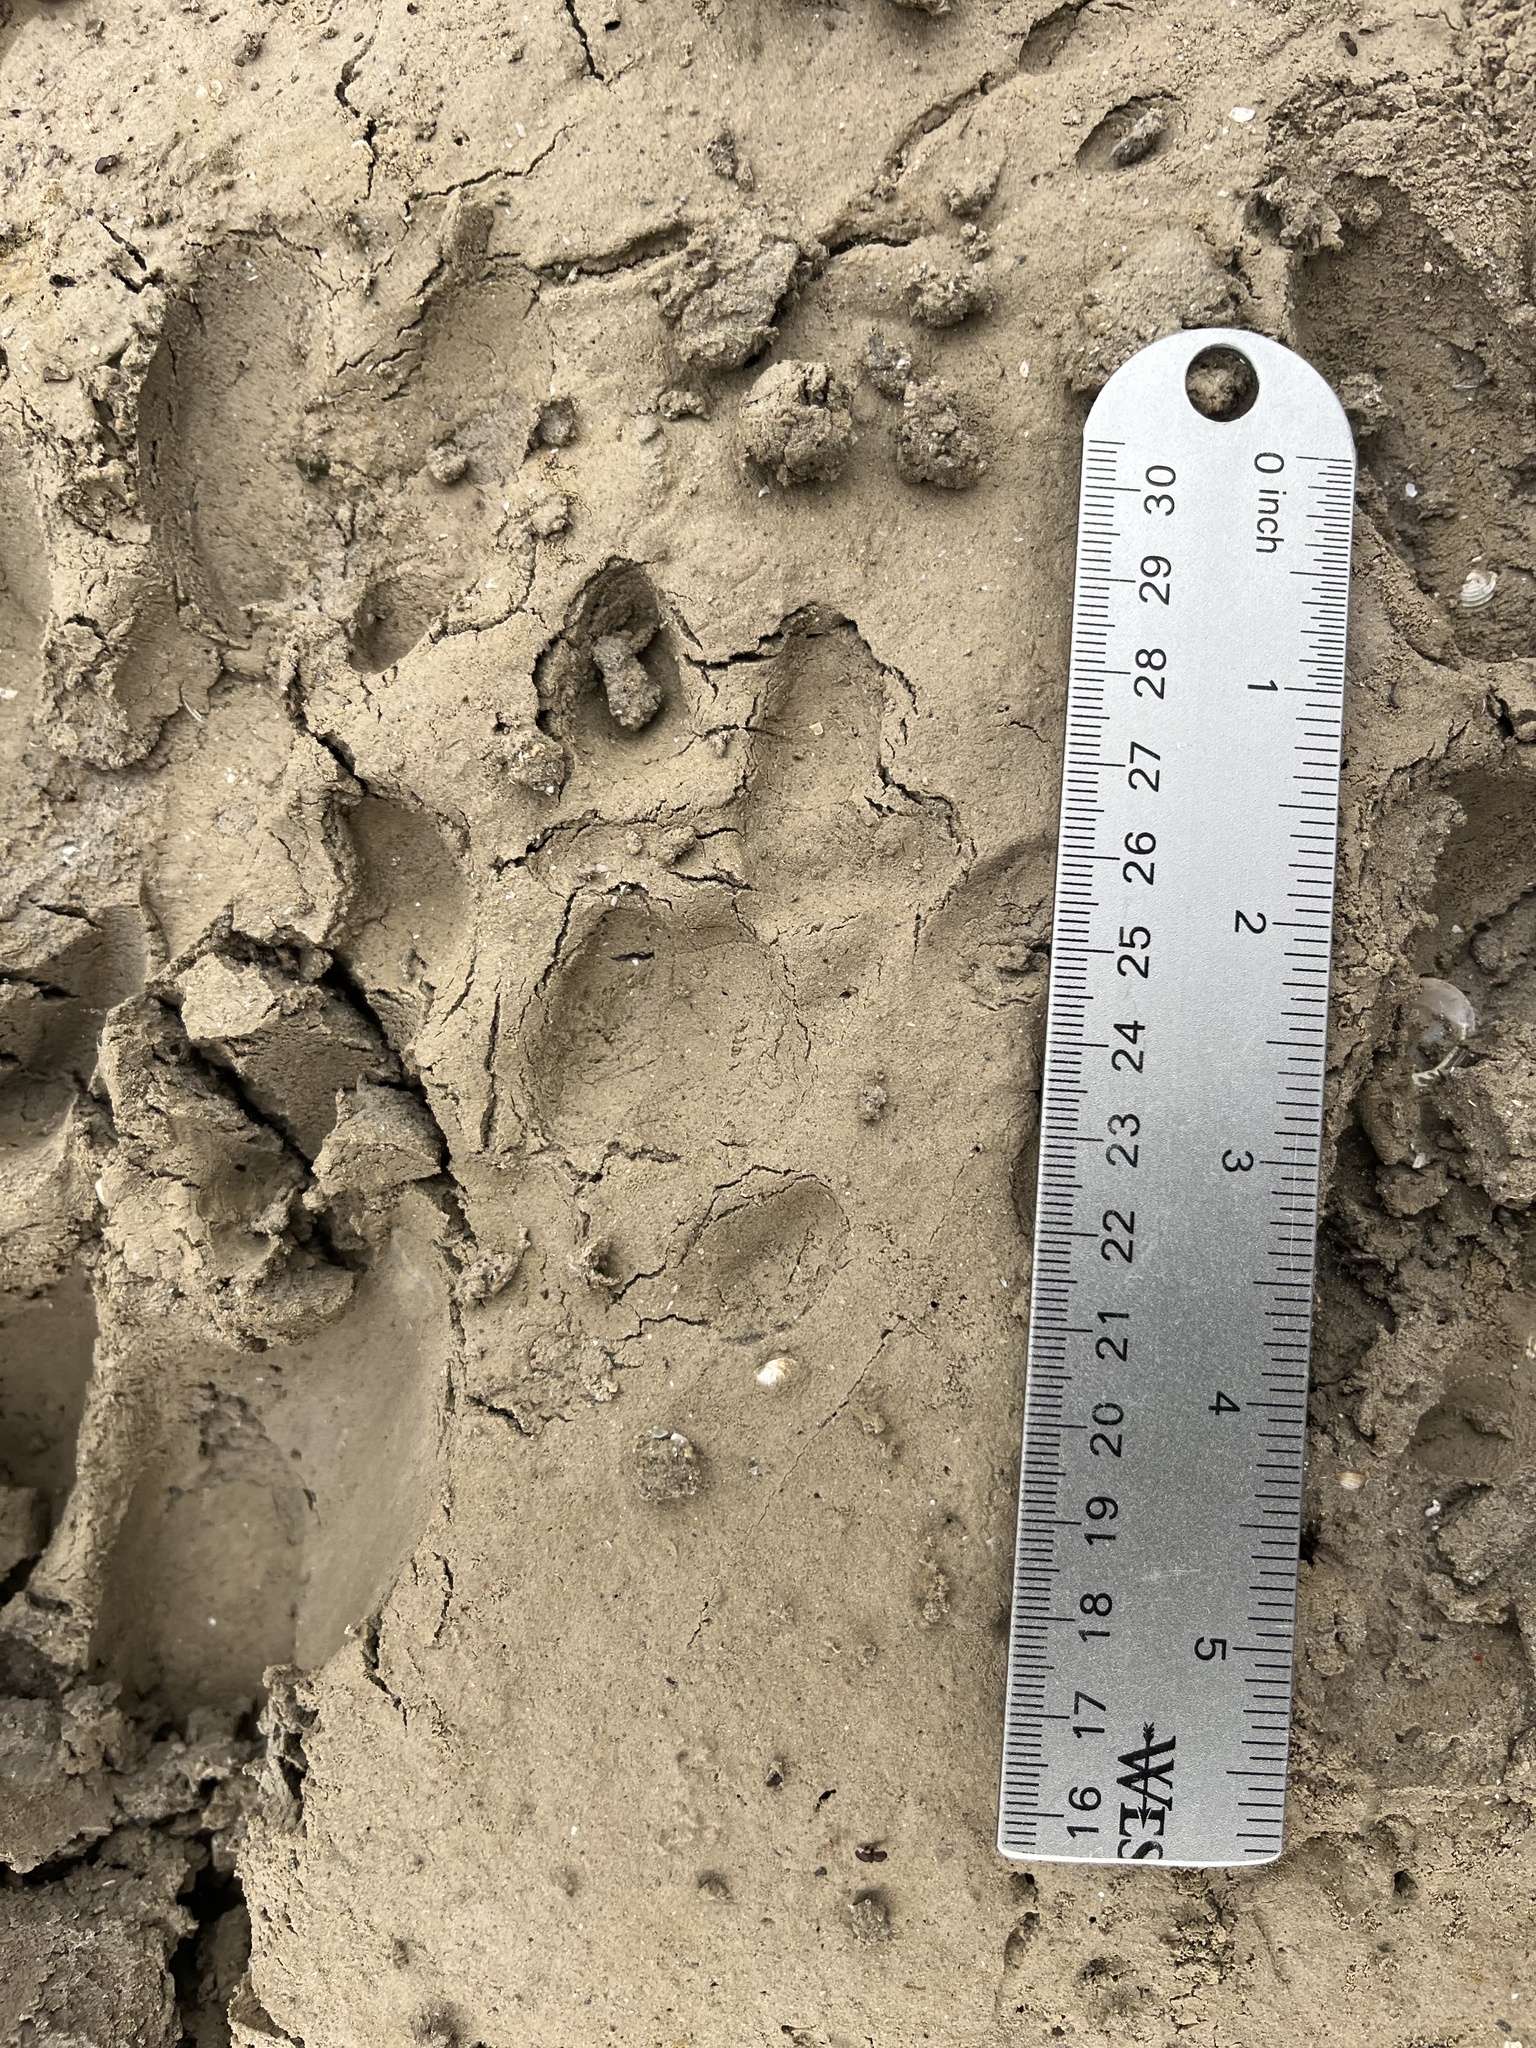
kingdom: Animalia
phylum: Chordata
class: Mammalia
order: Carnivora
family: Felidae
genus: Lynx
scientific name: Lynx rufus
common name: Bobcat
